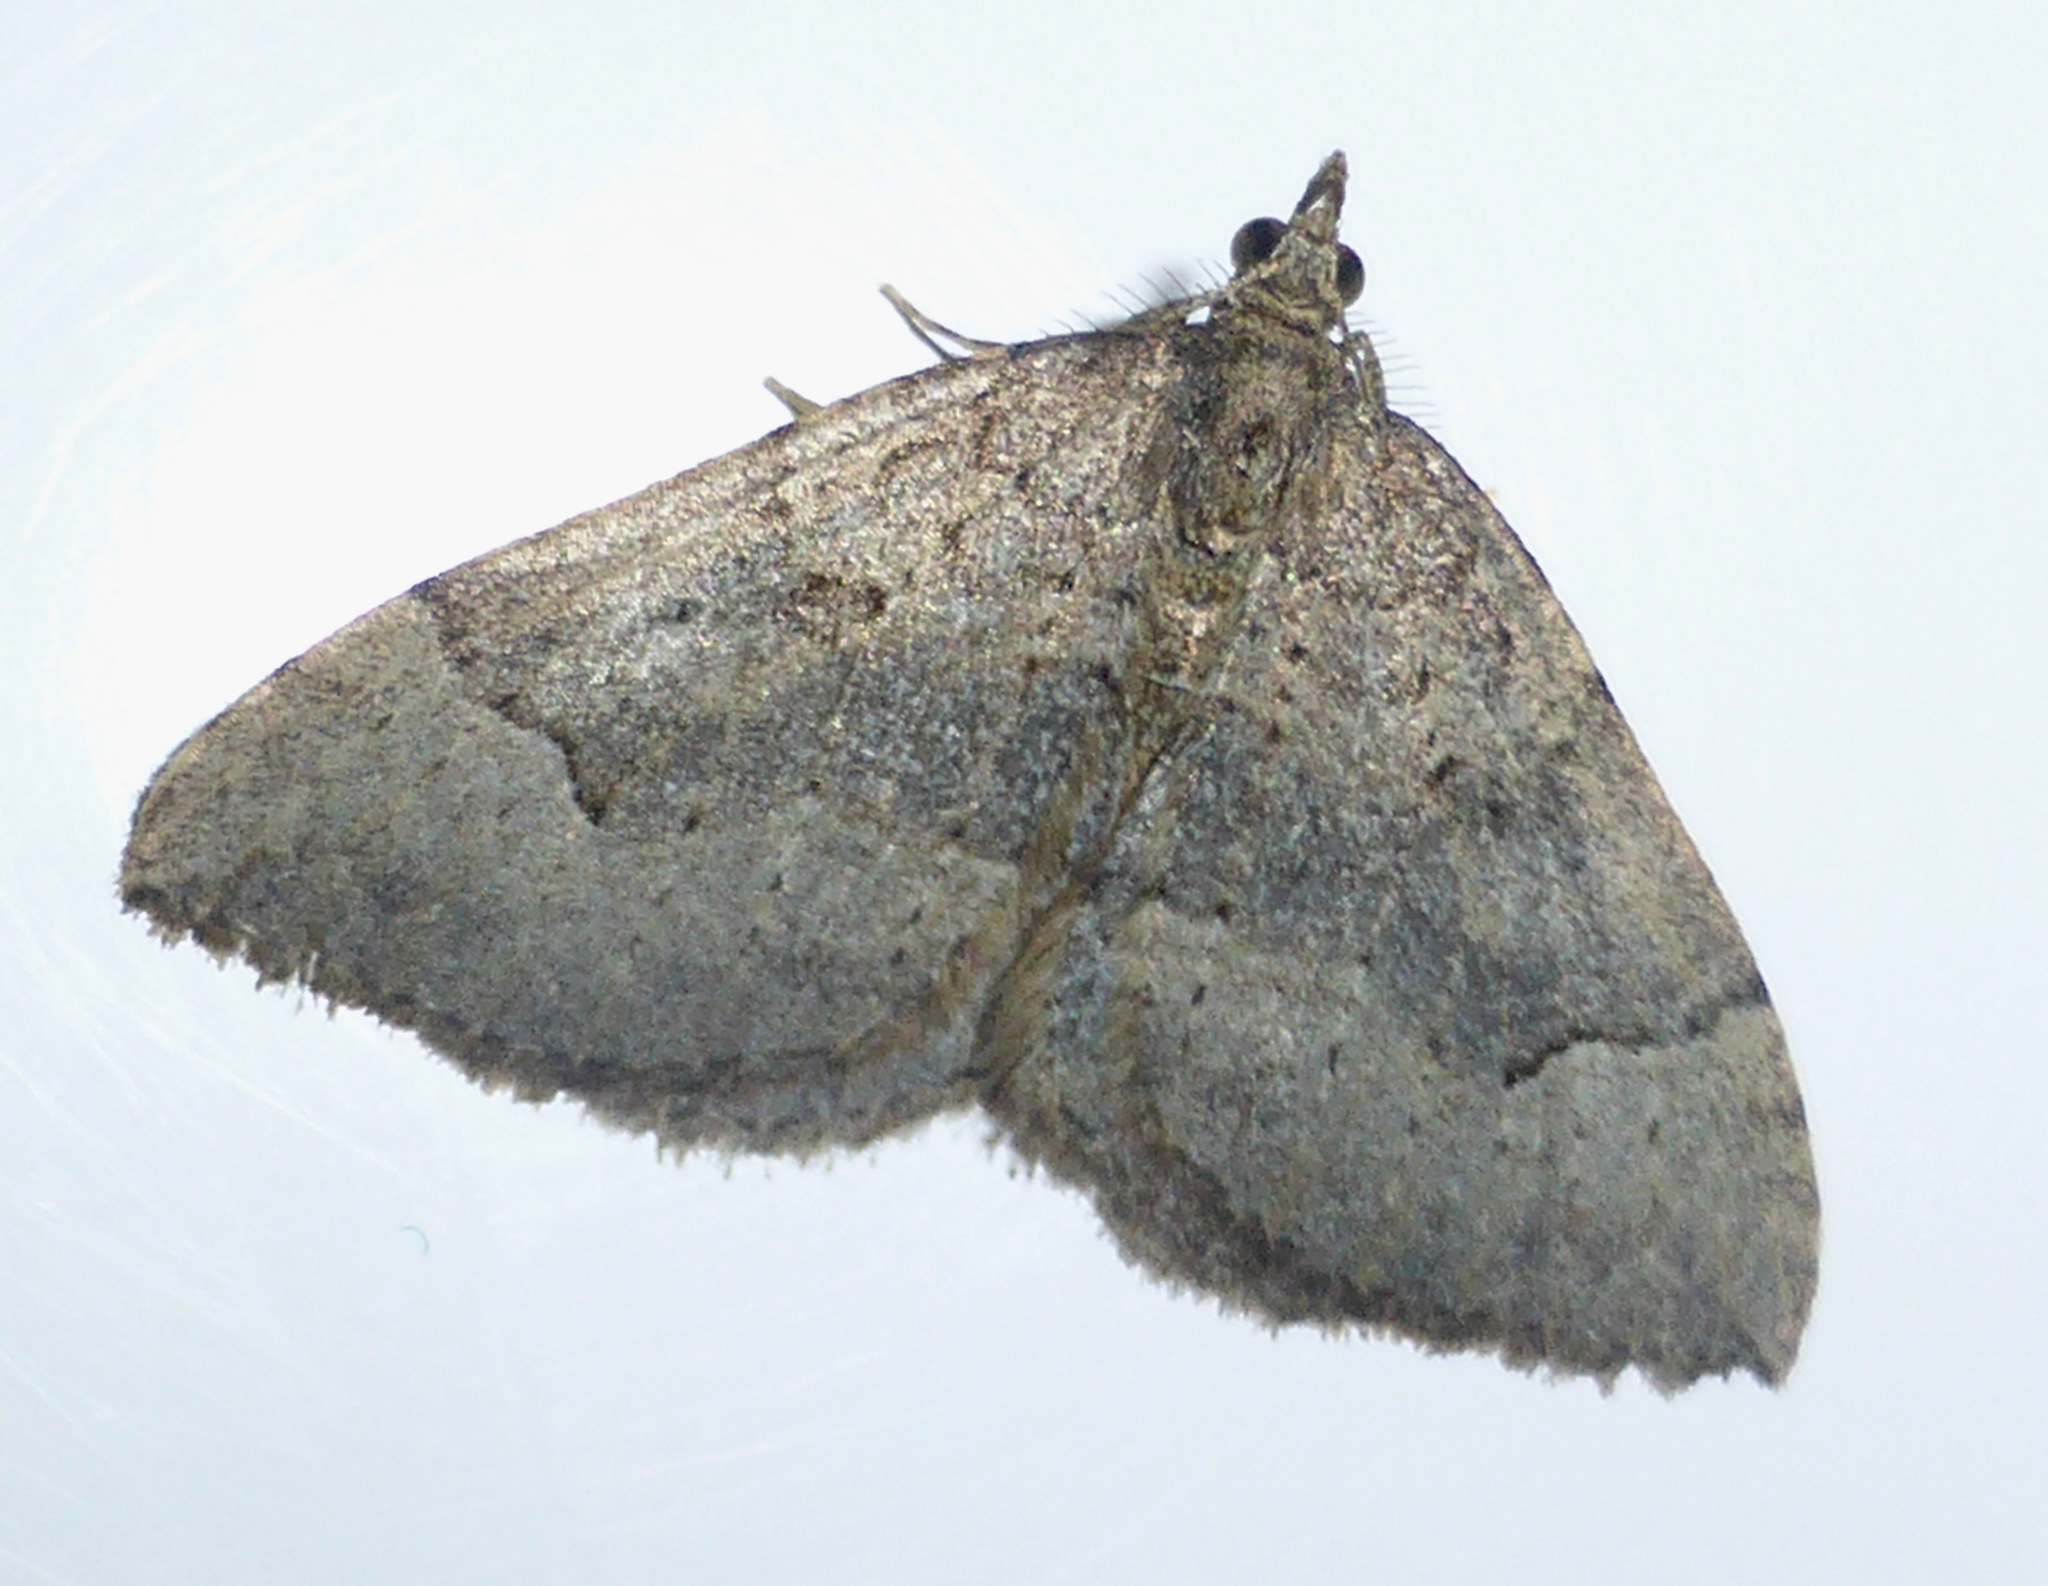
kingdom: Animalia
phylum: Arthropoda
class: Insecta
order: Lepidoptera
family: Geometridae
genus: Epyaxa
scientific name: Epyaxa rosearia
